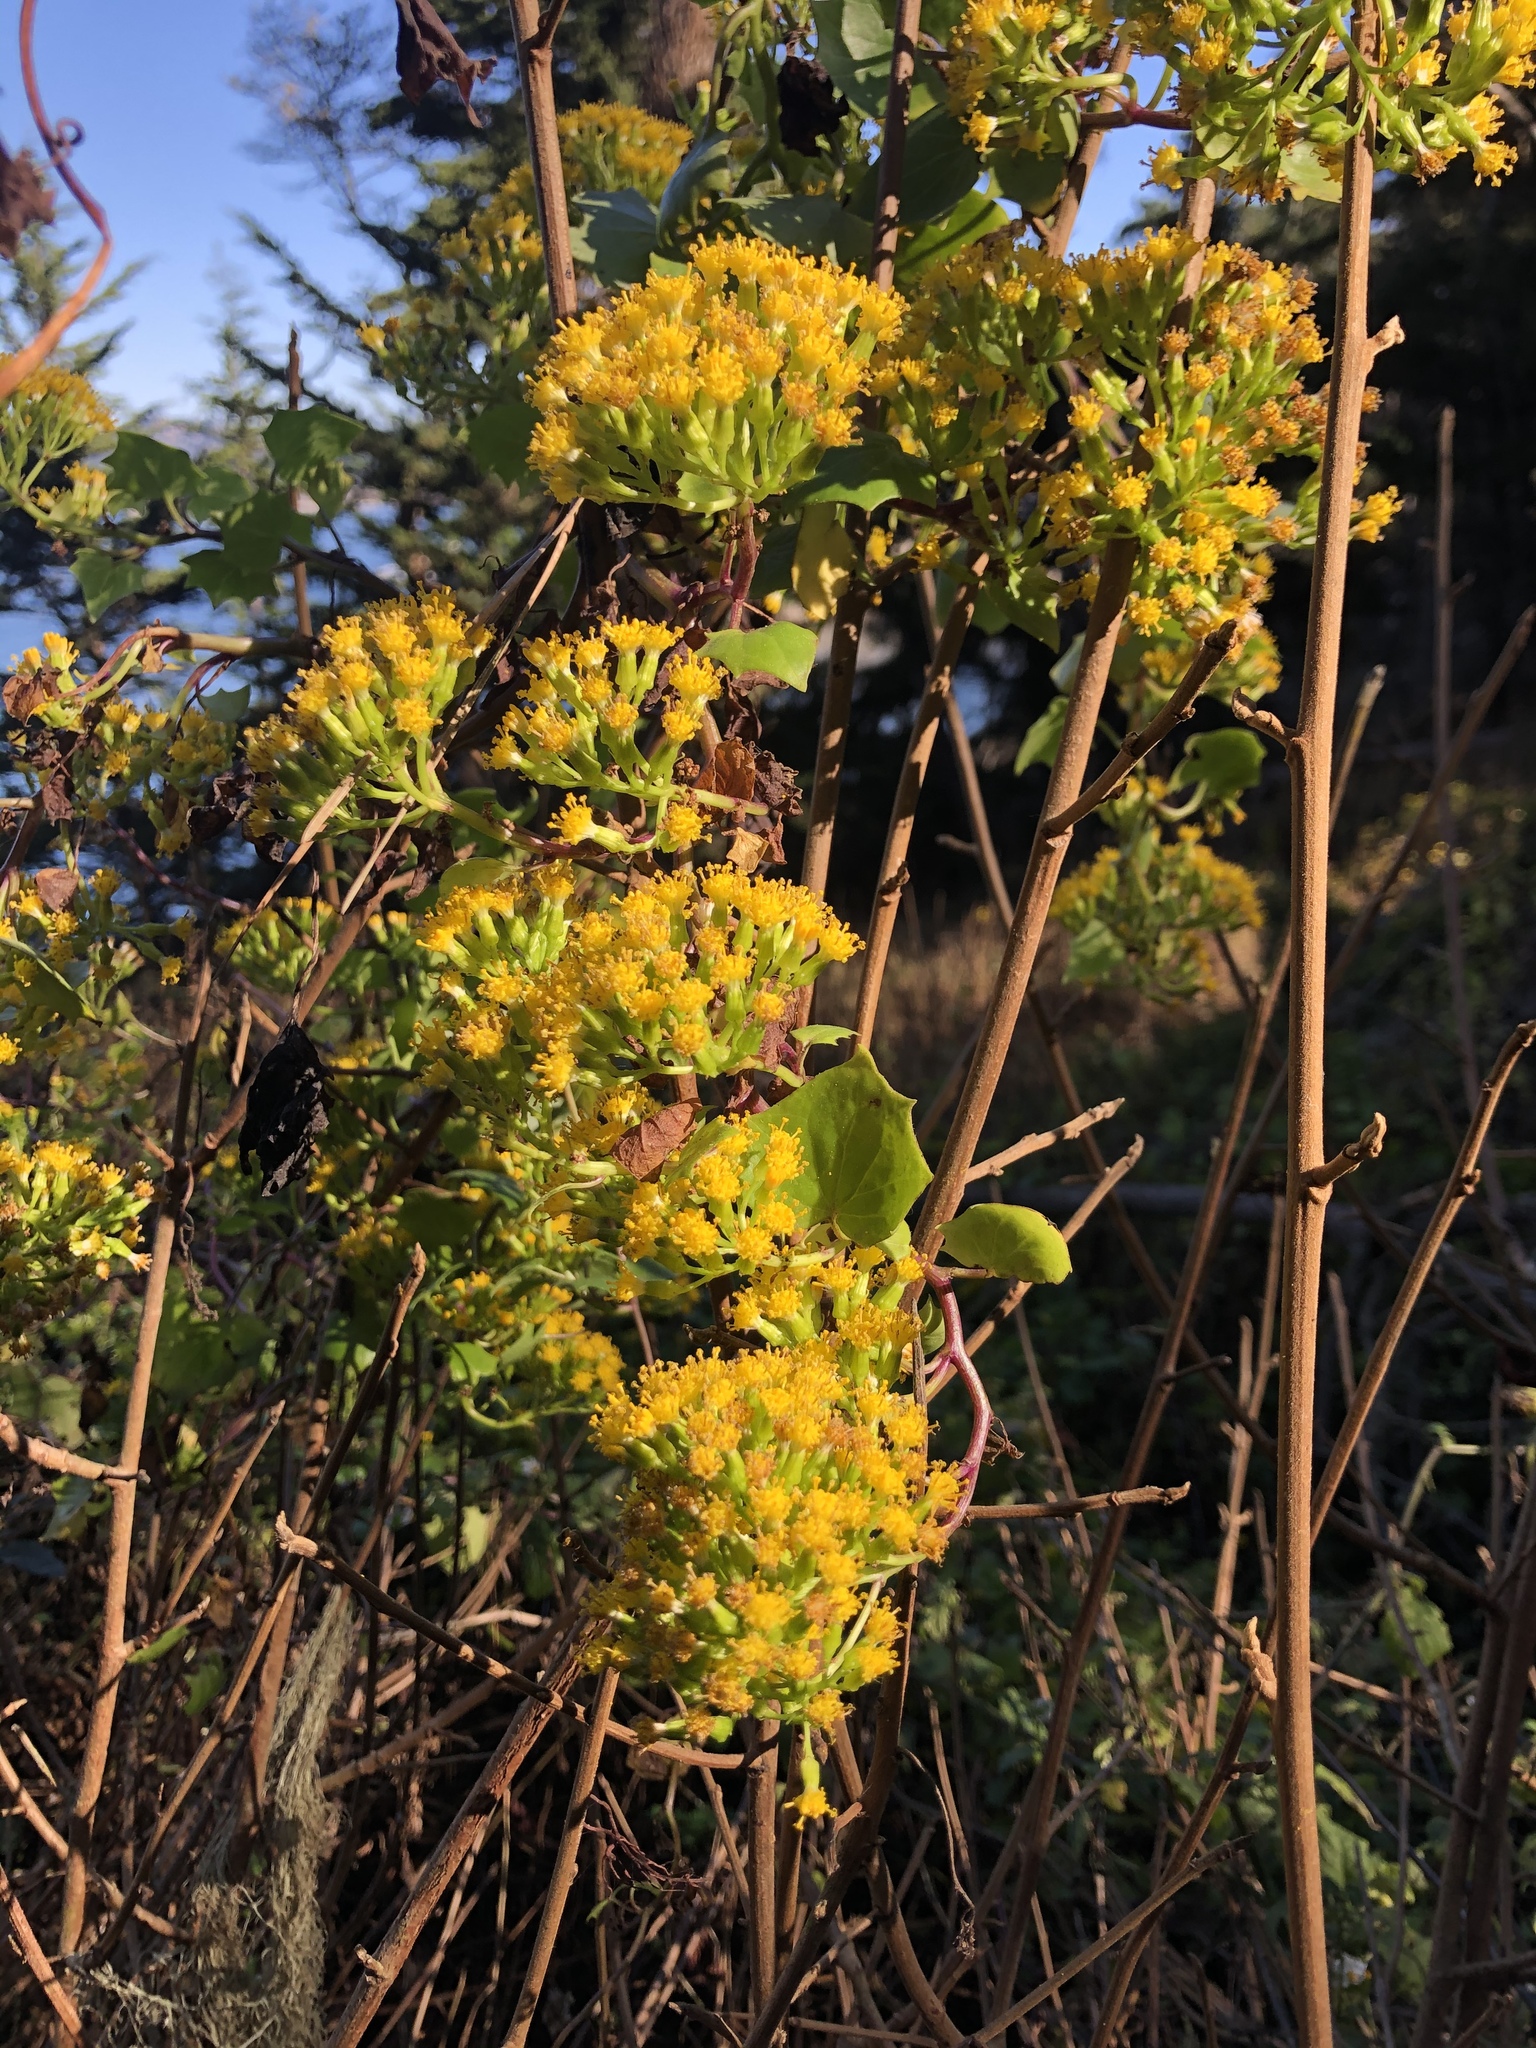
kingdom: Plantae
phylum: Tracheophyta
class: Magnoliopsida
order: Asterales
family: Asteraceae
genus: Delairea
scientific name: Delairea odorata
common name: Cape-ivy
